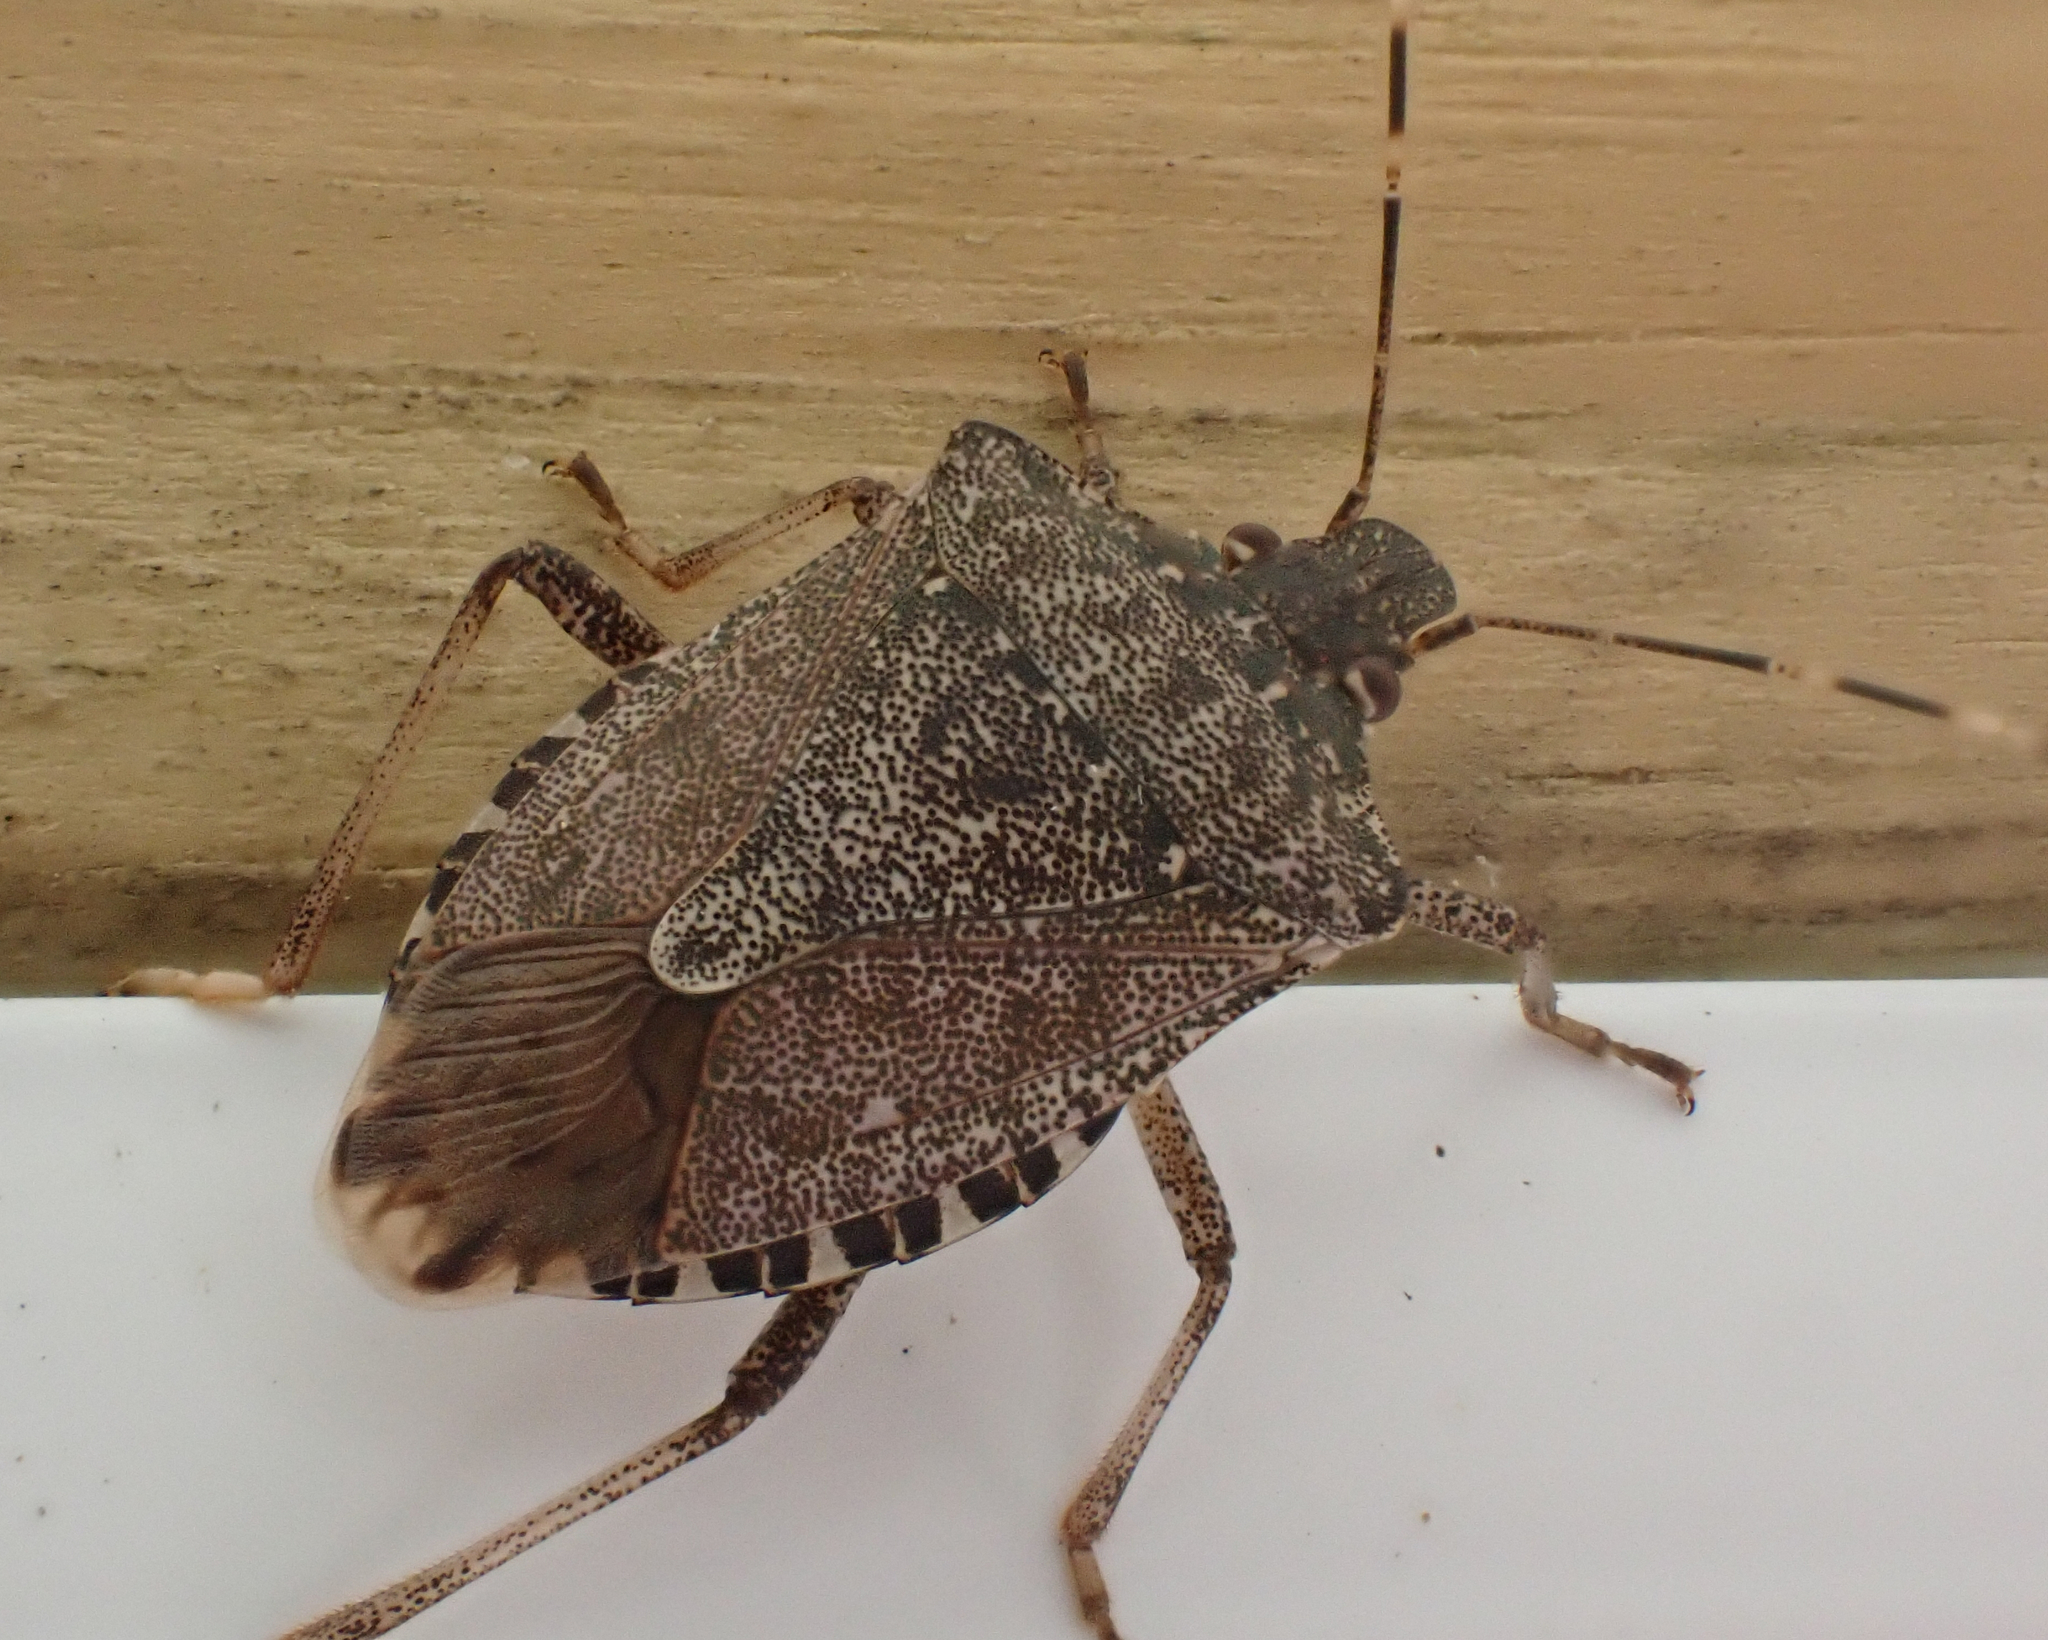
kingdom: Animalia
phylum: Arthropoda
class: Insecta
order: Hemiptera
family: Pentatomidae
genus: Halyomorpha
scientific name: Halyomorpha halys
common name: Brown marmorated stink bug
